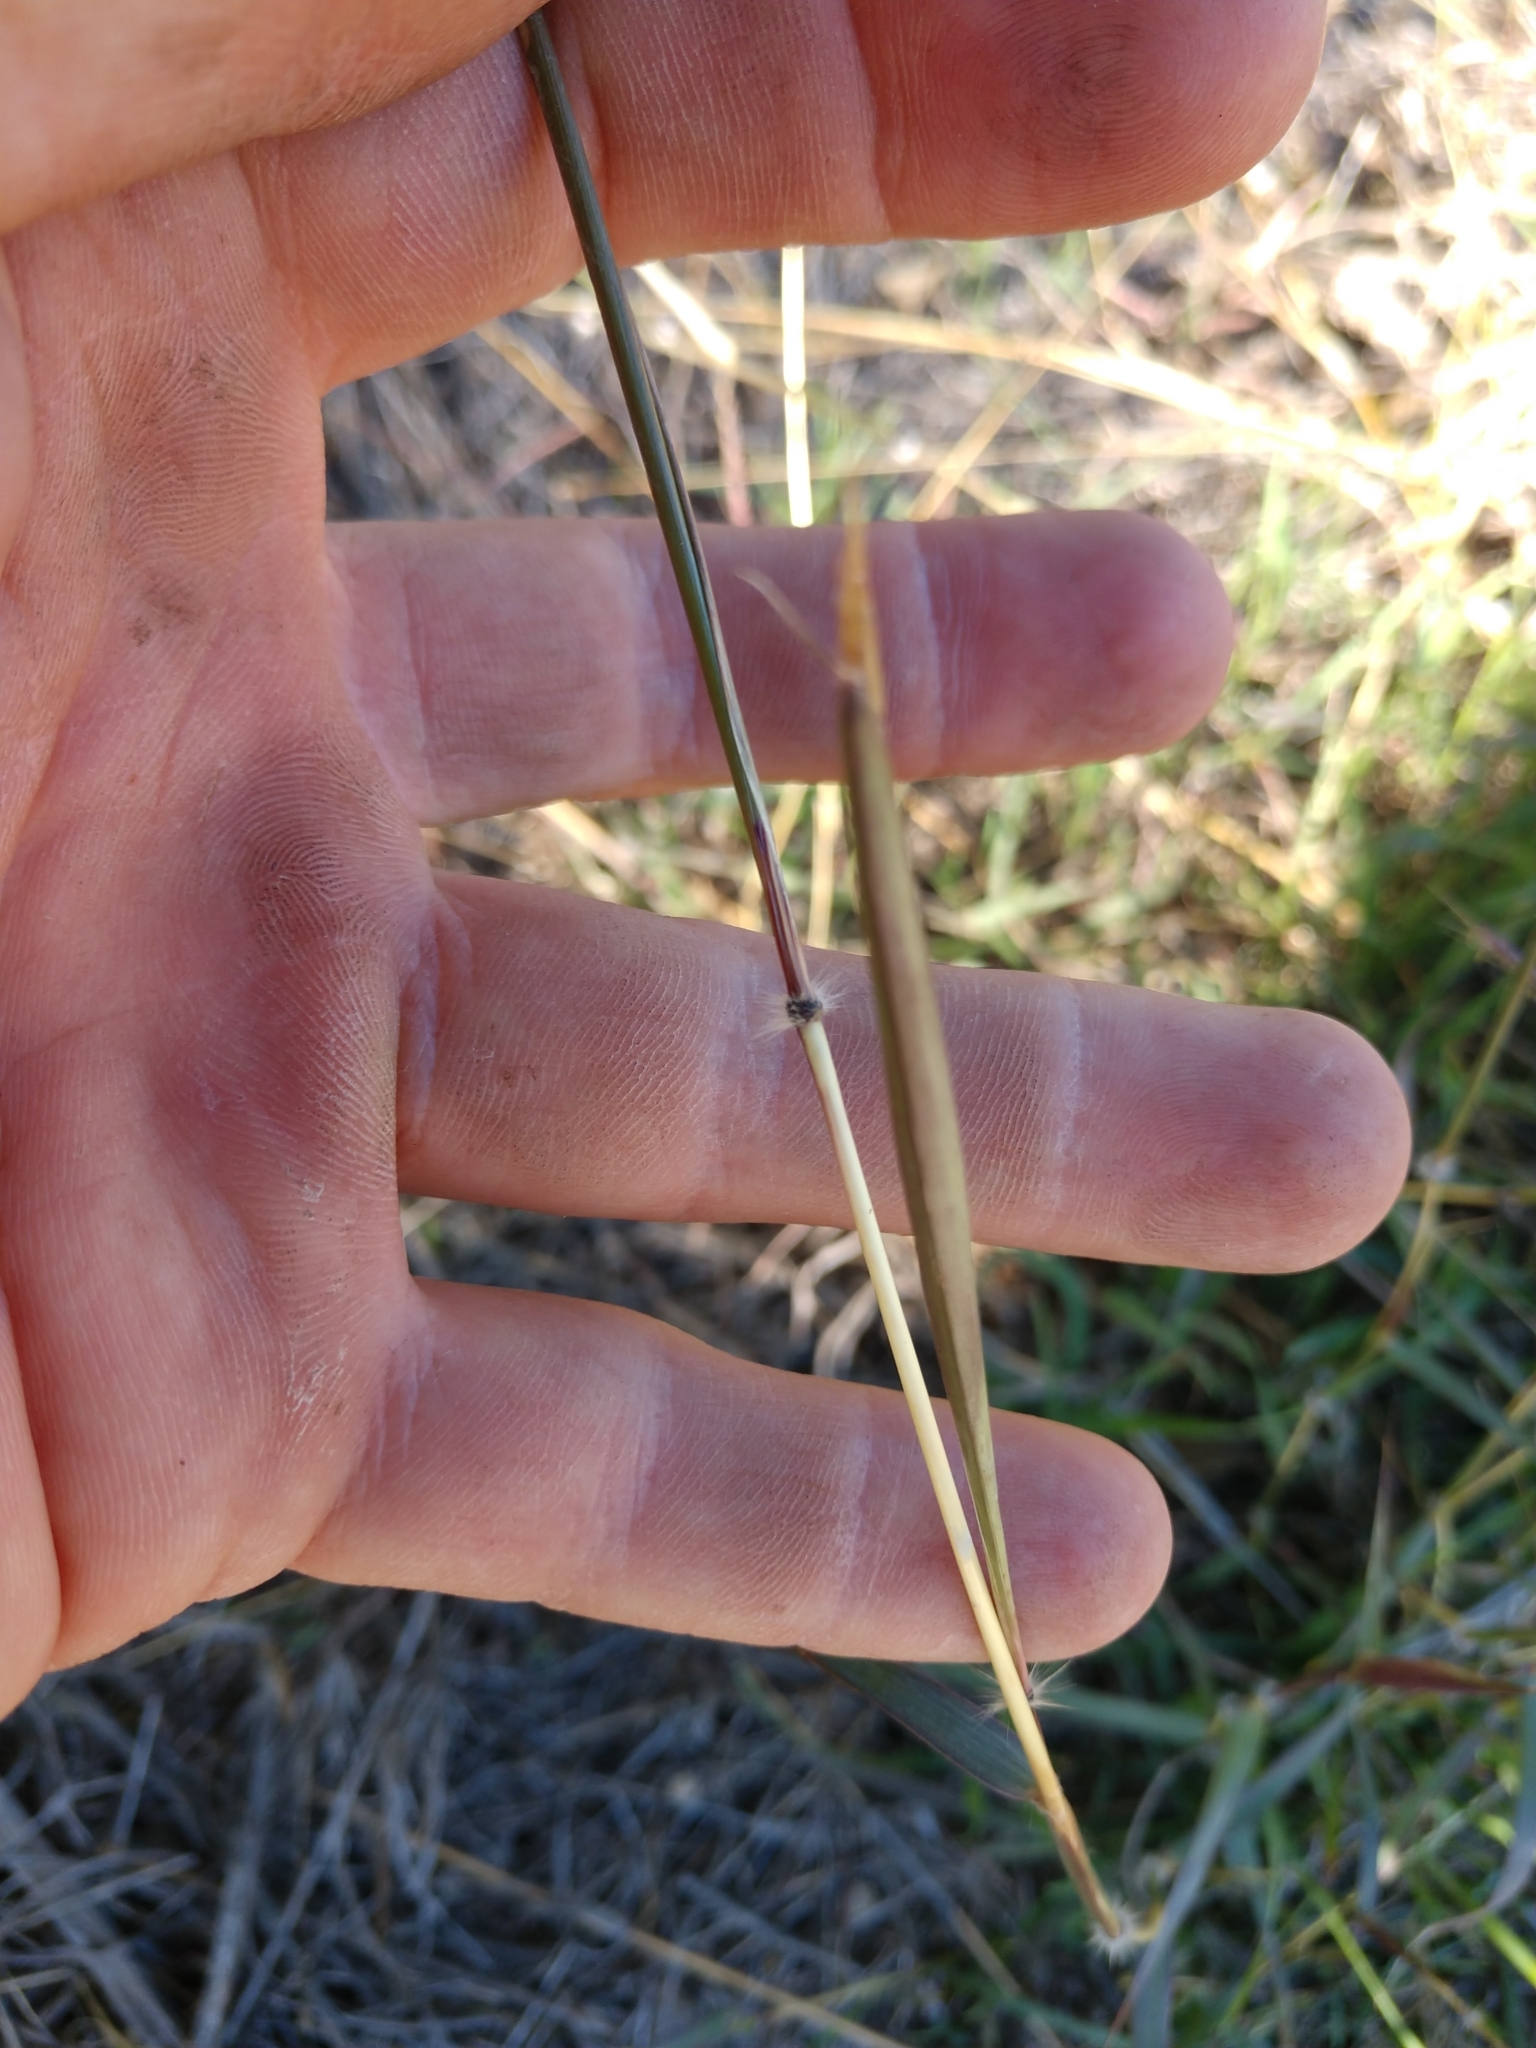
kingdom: Plantae
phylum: Tracheophyta
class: Liliopsida
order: Poales
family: Poaceae
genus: Dichanthium
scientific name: Dichanthium annulatum
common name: Kleberg's bluestem
